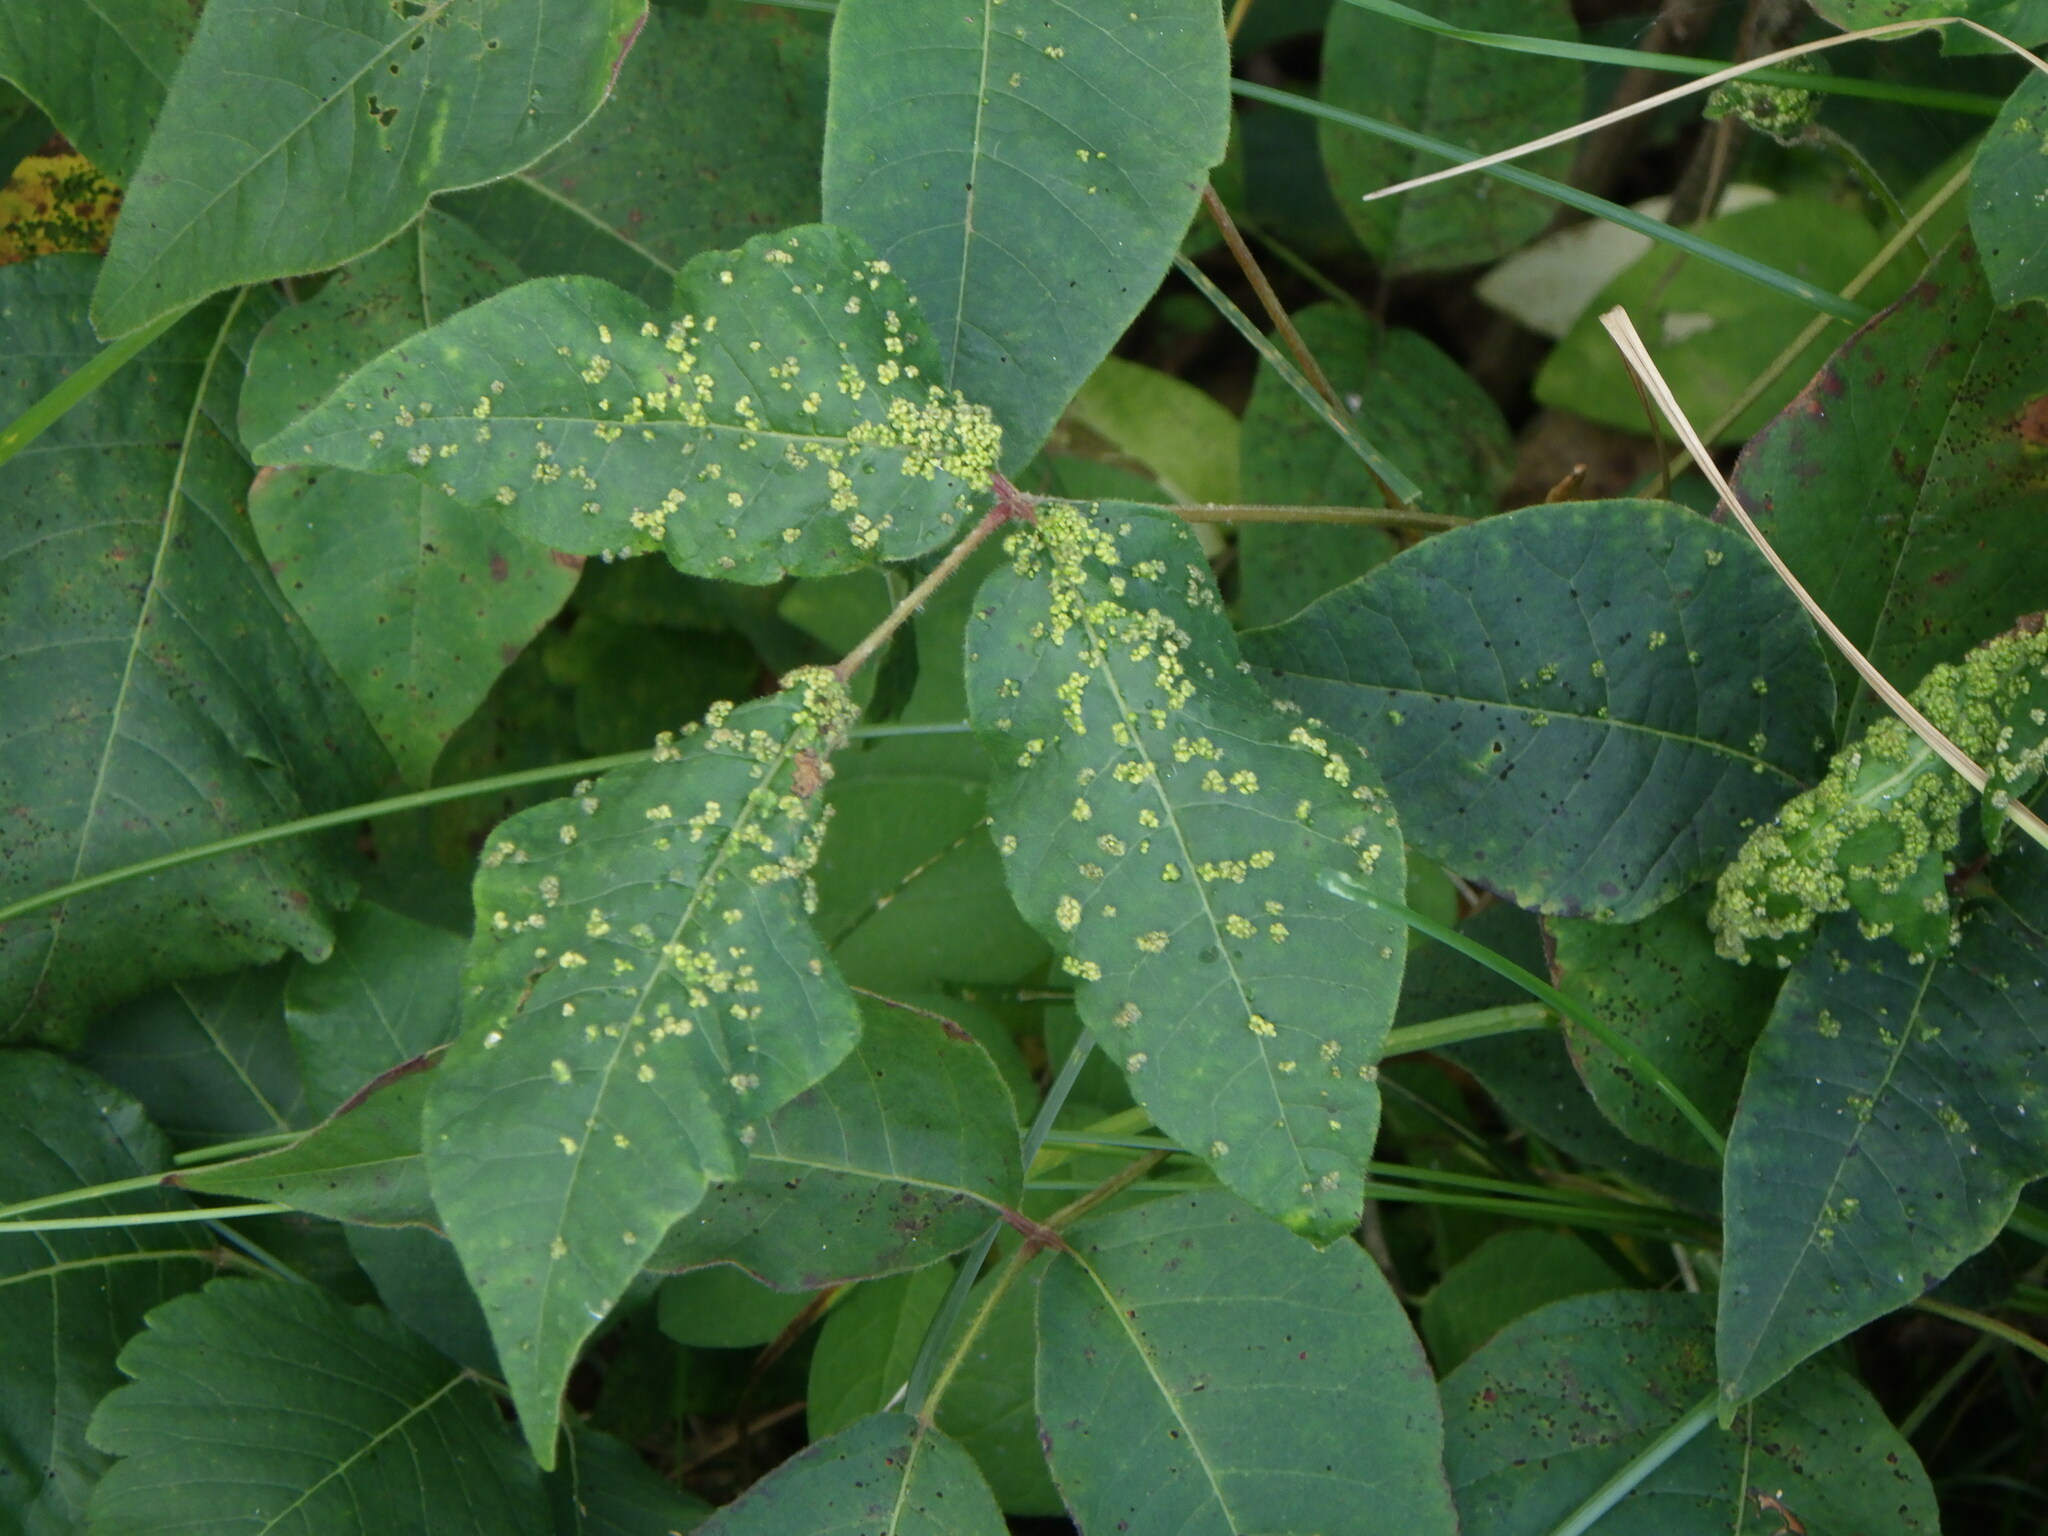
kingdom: Animalia
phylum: Arthropoda
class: Arachnida
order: Trombidiformes
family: Eriophyidae
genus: Aculops
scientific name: Aculops
